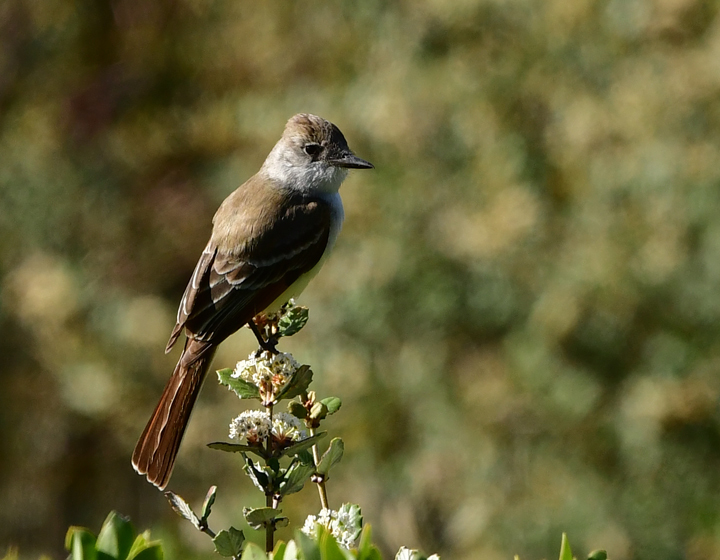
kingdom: Animalia
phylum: Chordata
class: Aves
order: Passeriformes
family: Tyrannidae
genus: Myiarchus
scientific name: Myiarchus cinerascens
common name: Ash-throated flycatcher
